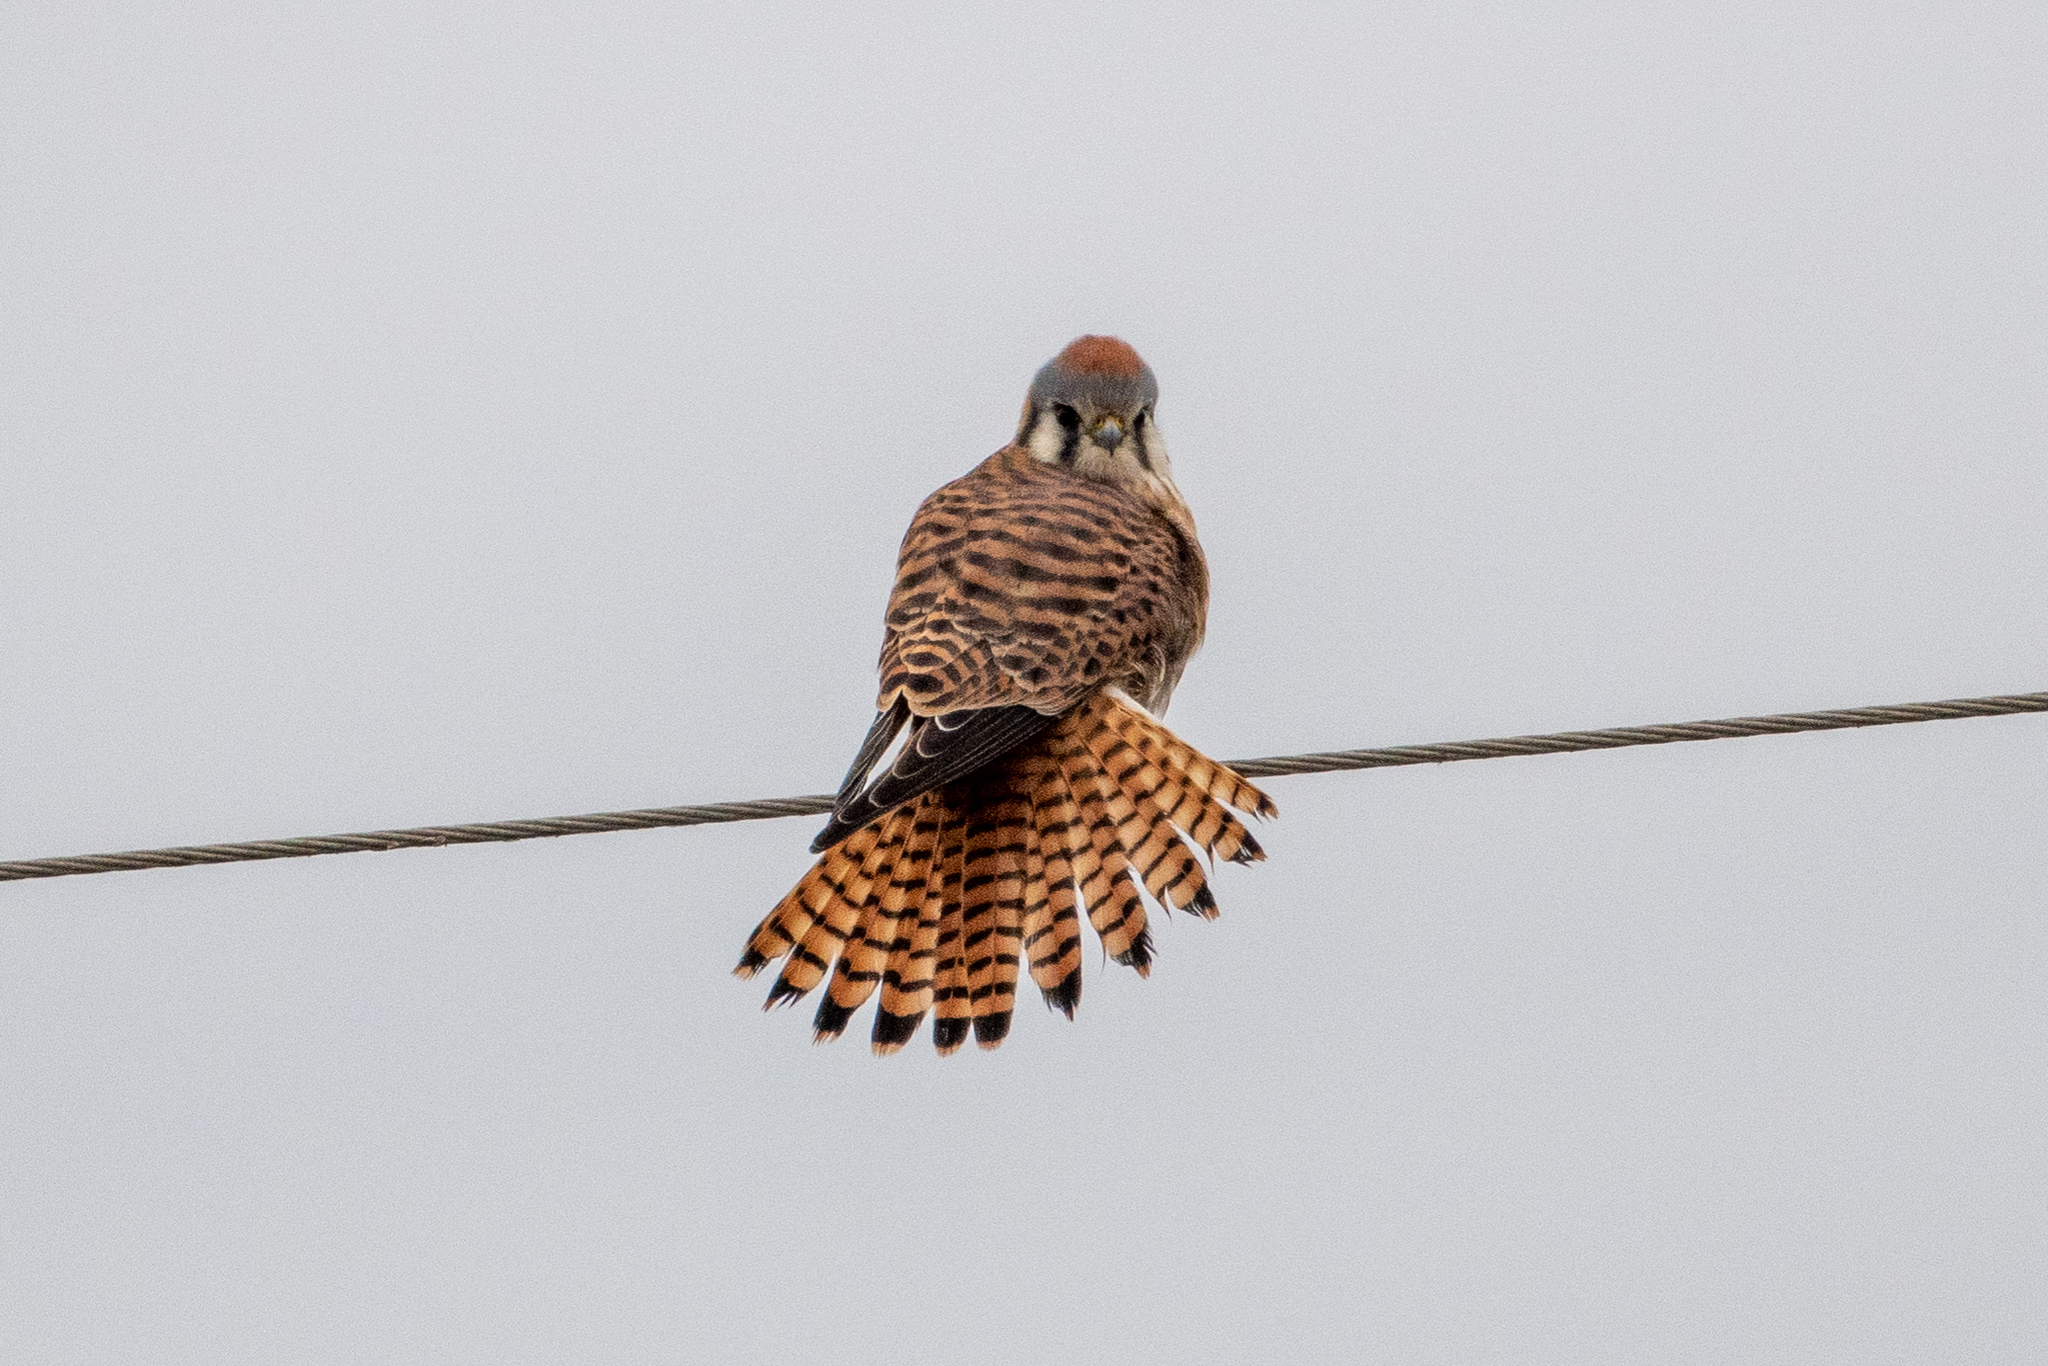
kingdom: Animalia
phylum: Chordata
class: Aves
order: Falconiformes
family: Falconidae
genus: Falco
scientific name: Falco sparverius
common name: American kestrel
